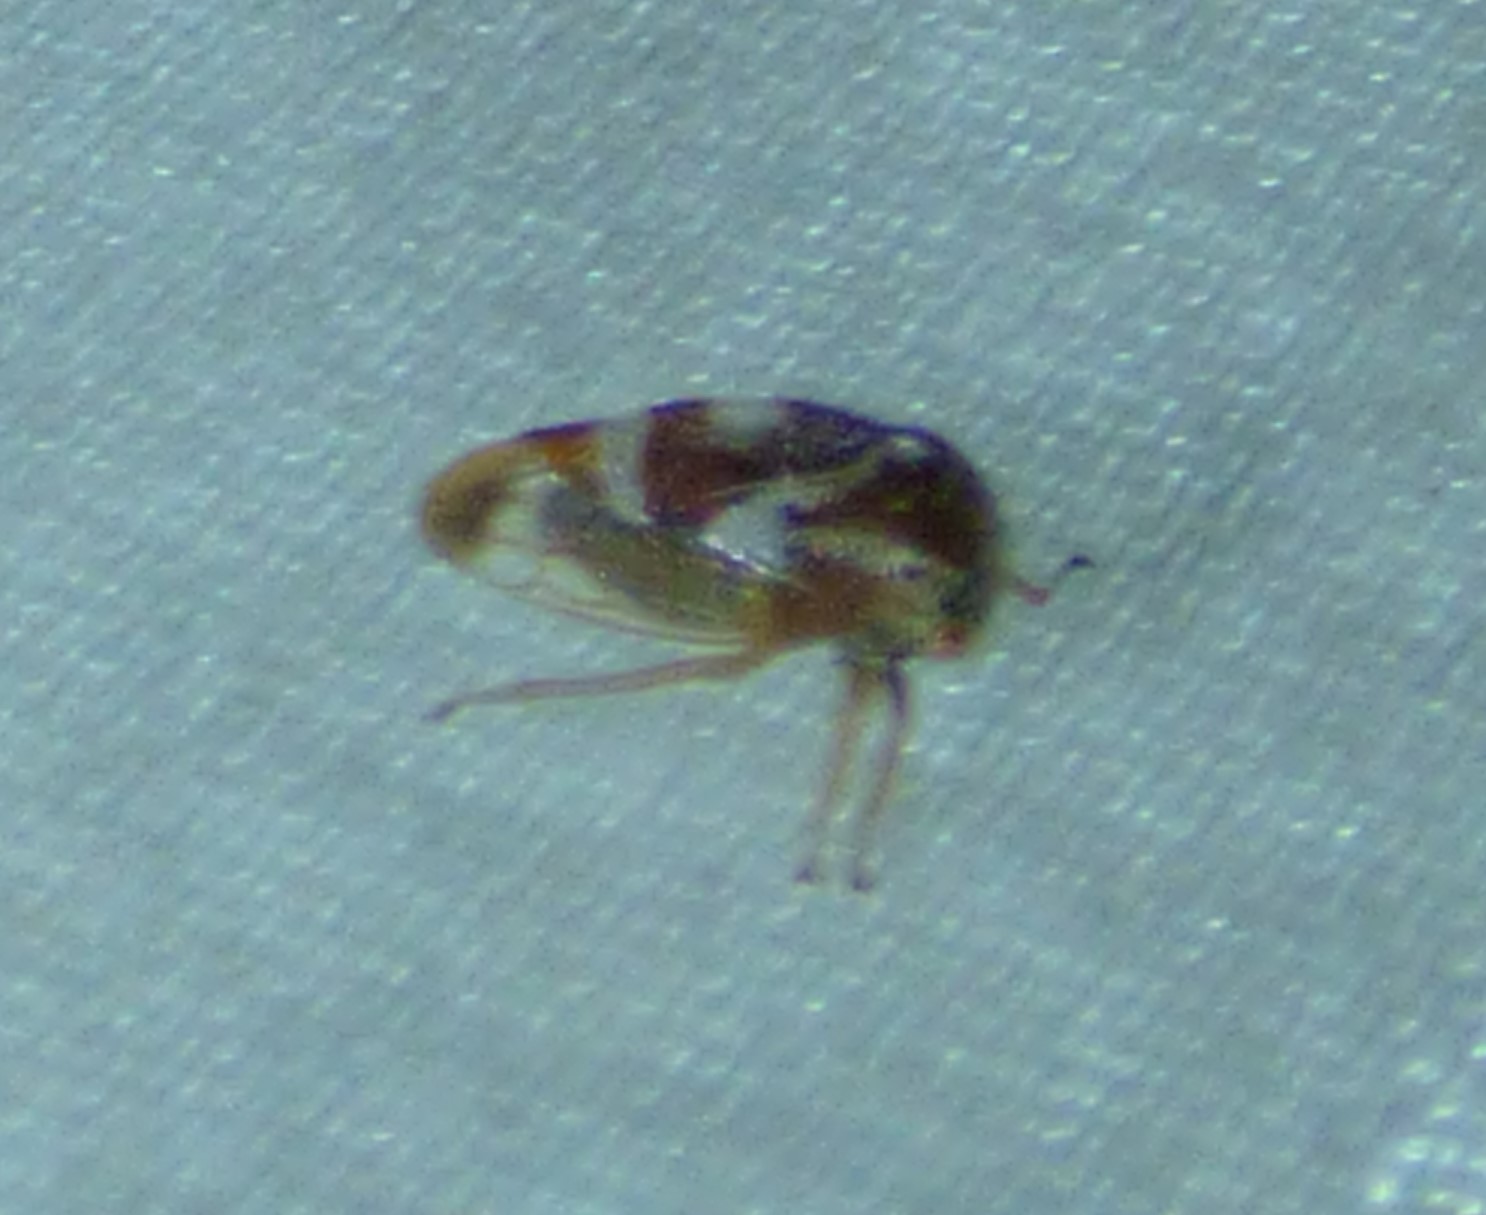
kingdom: Animalia
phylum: Arthropoda
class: Insecta
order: Hemiptera
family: Membracidae
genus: Cyrtolobus
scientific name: Cyrtolobus vau
